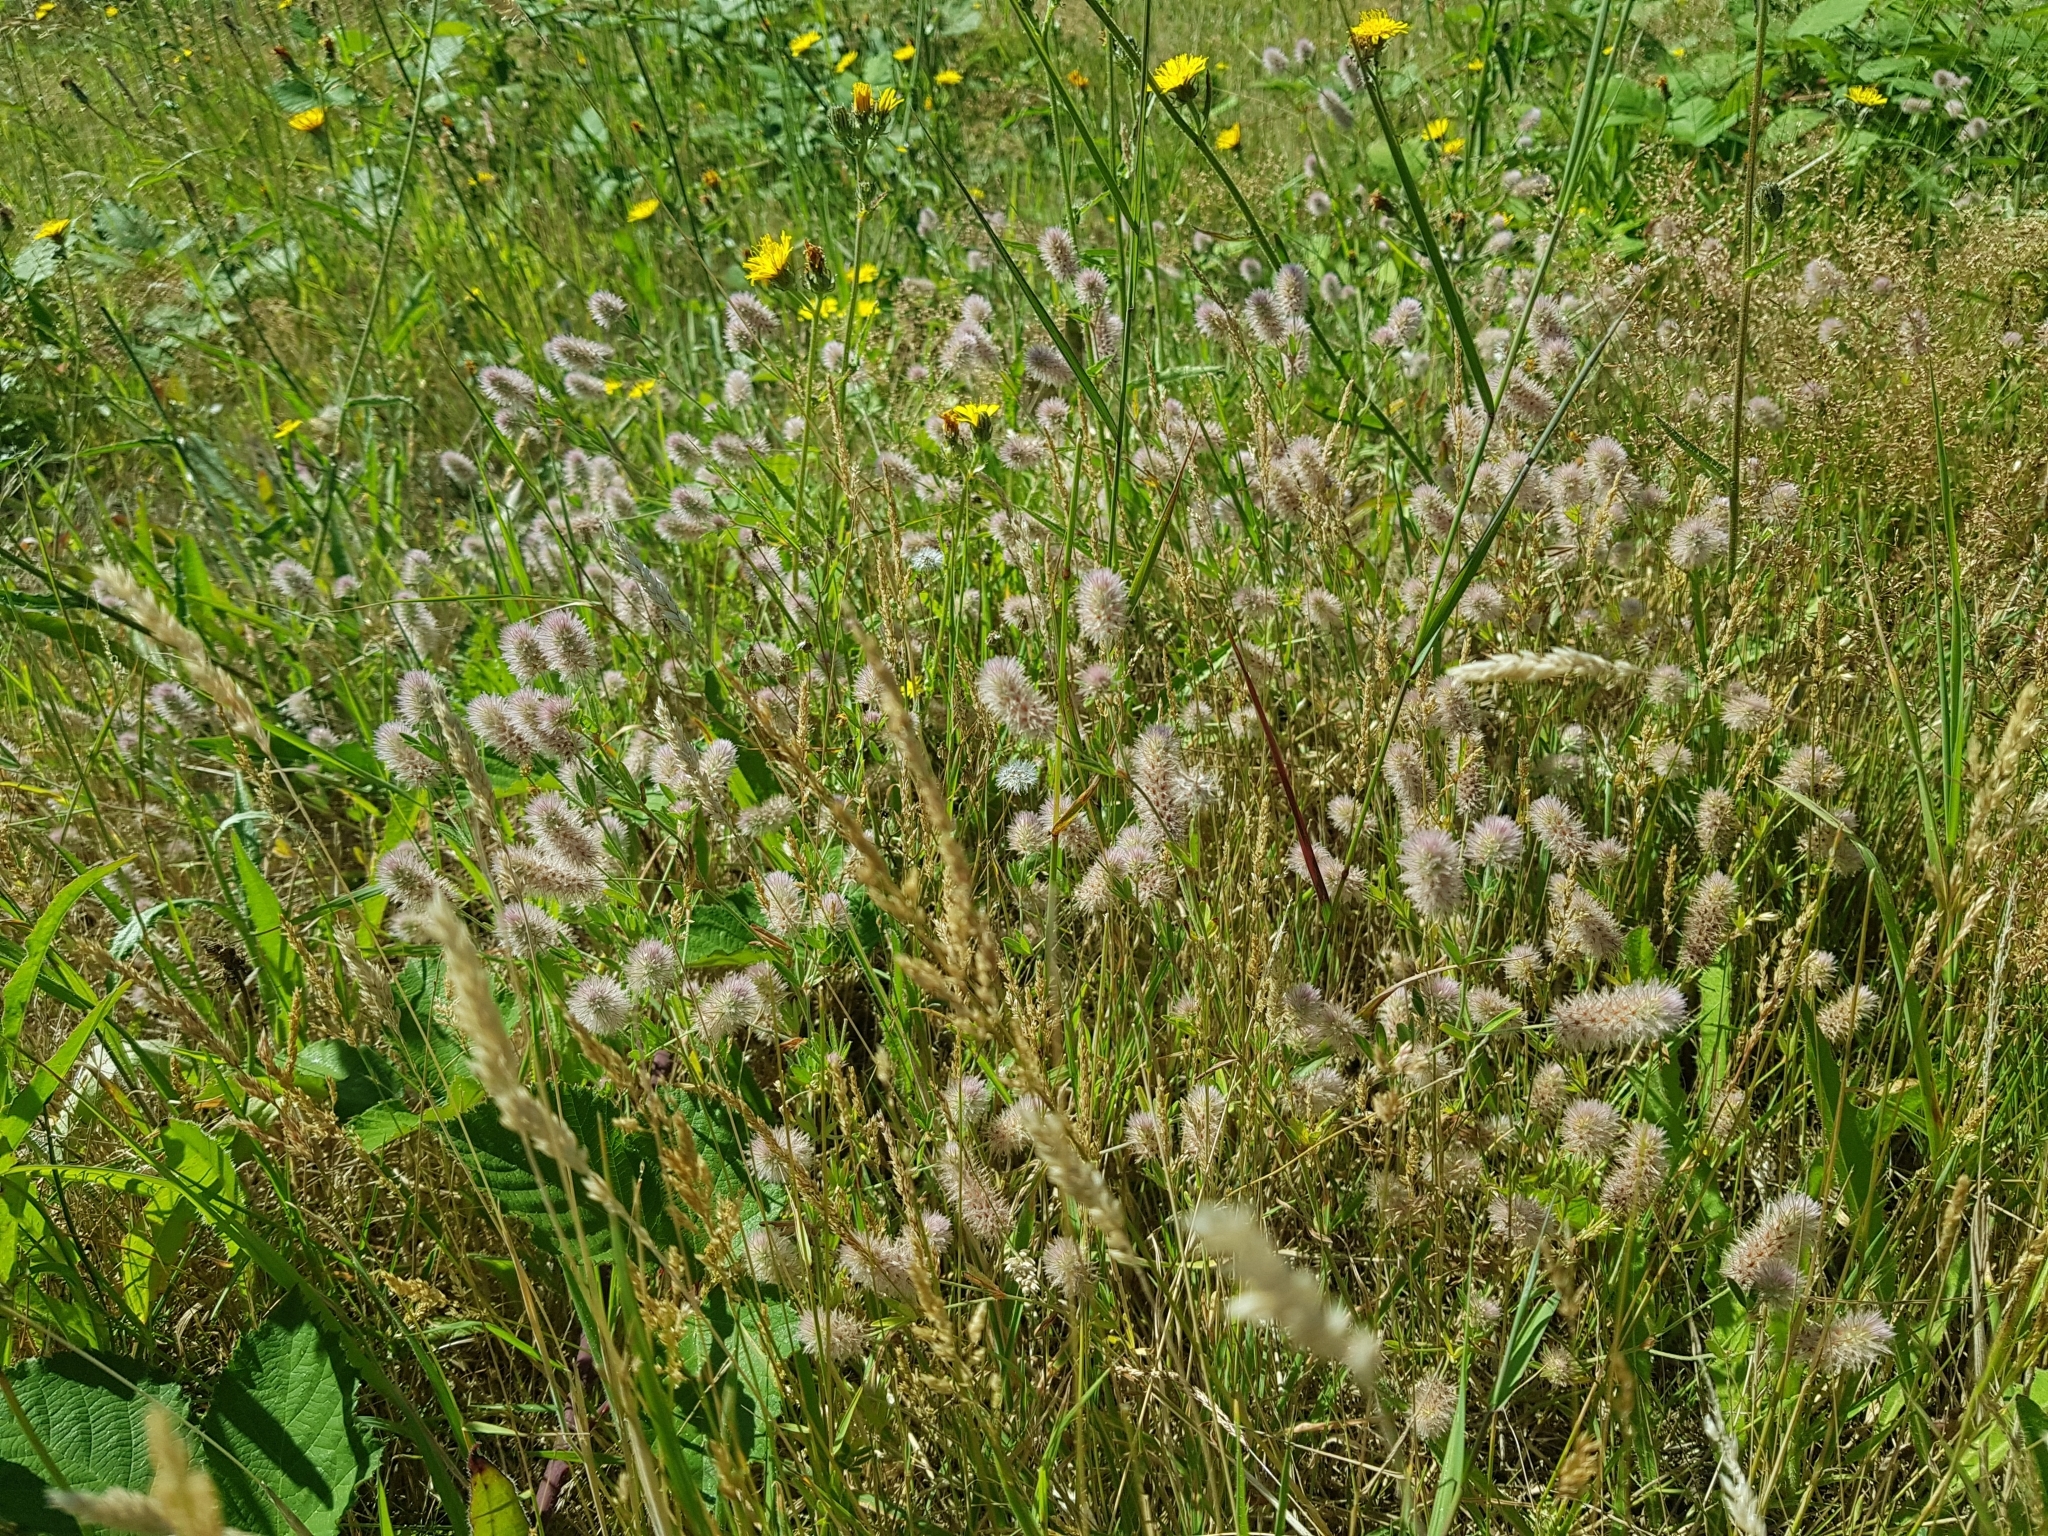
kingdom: Plantae
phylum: Tracheophyta
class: Magnoliopsida
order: Fabales
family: Fabaceae
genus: Trifolium
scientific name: Trifolium arvense
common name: Hare's-foot clover
